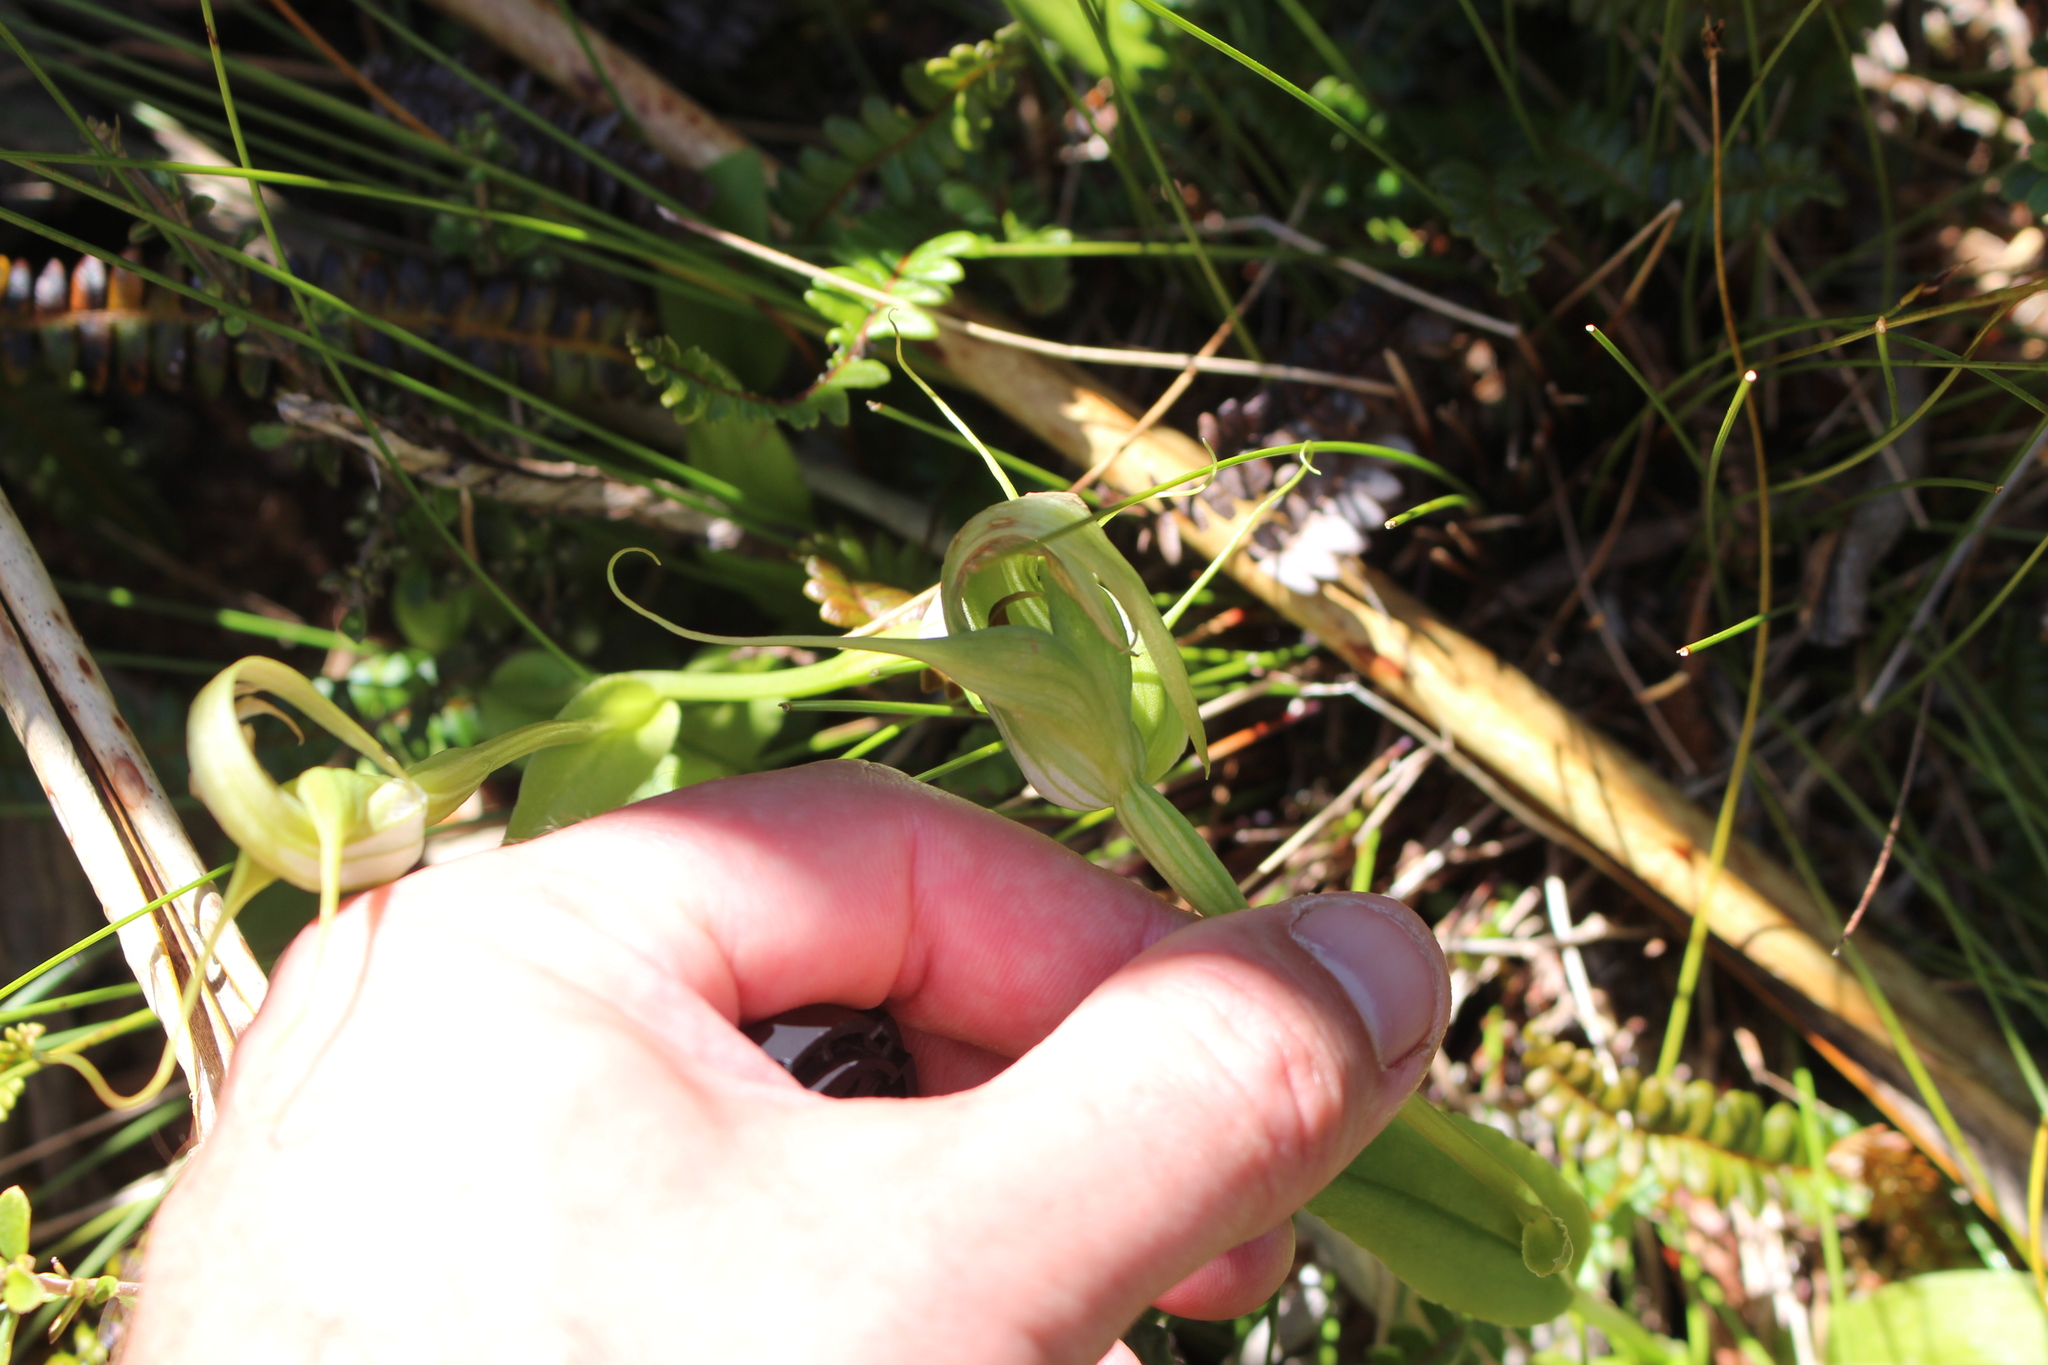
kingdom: Plantae
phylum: Tracheophyta
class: Liliopsida
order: Asparagales
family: Orchidaceae
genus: Pterostylis
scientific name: Pterostylis oliveri
